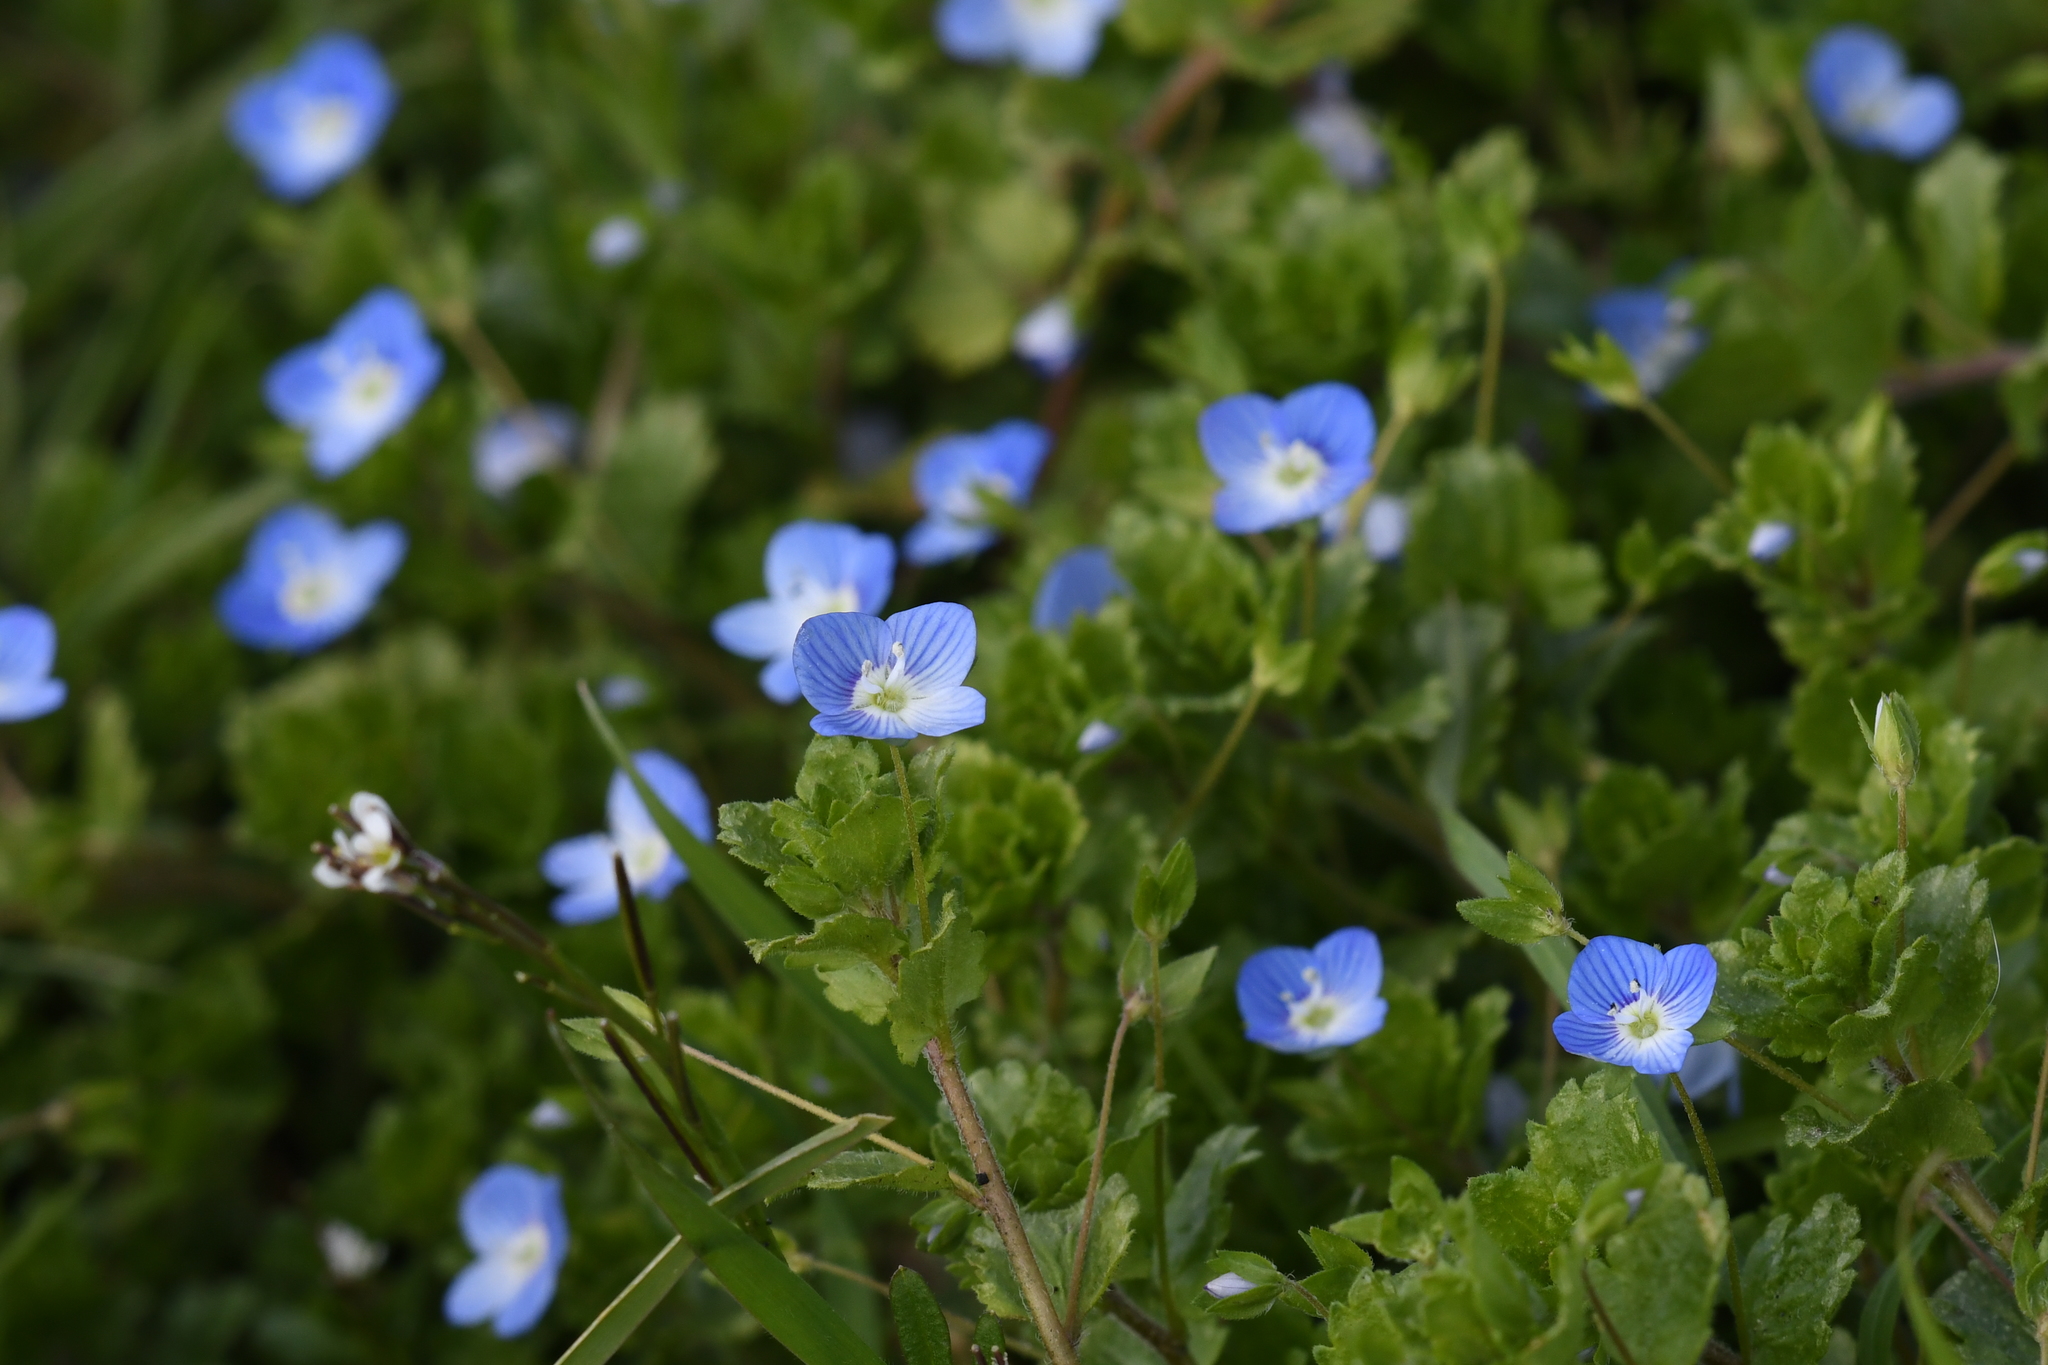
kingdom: Plantae
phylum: Tracheophyta
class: Magnoliopsida
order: Lamiales
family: Plantaginaceae
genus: Veronica
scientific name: Veronica persica
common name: Common field-speedwell
